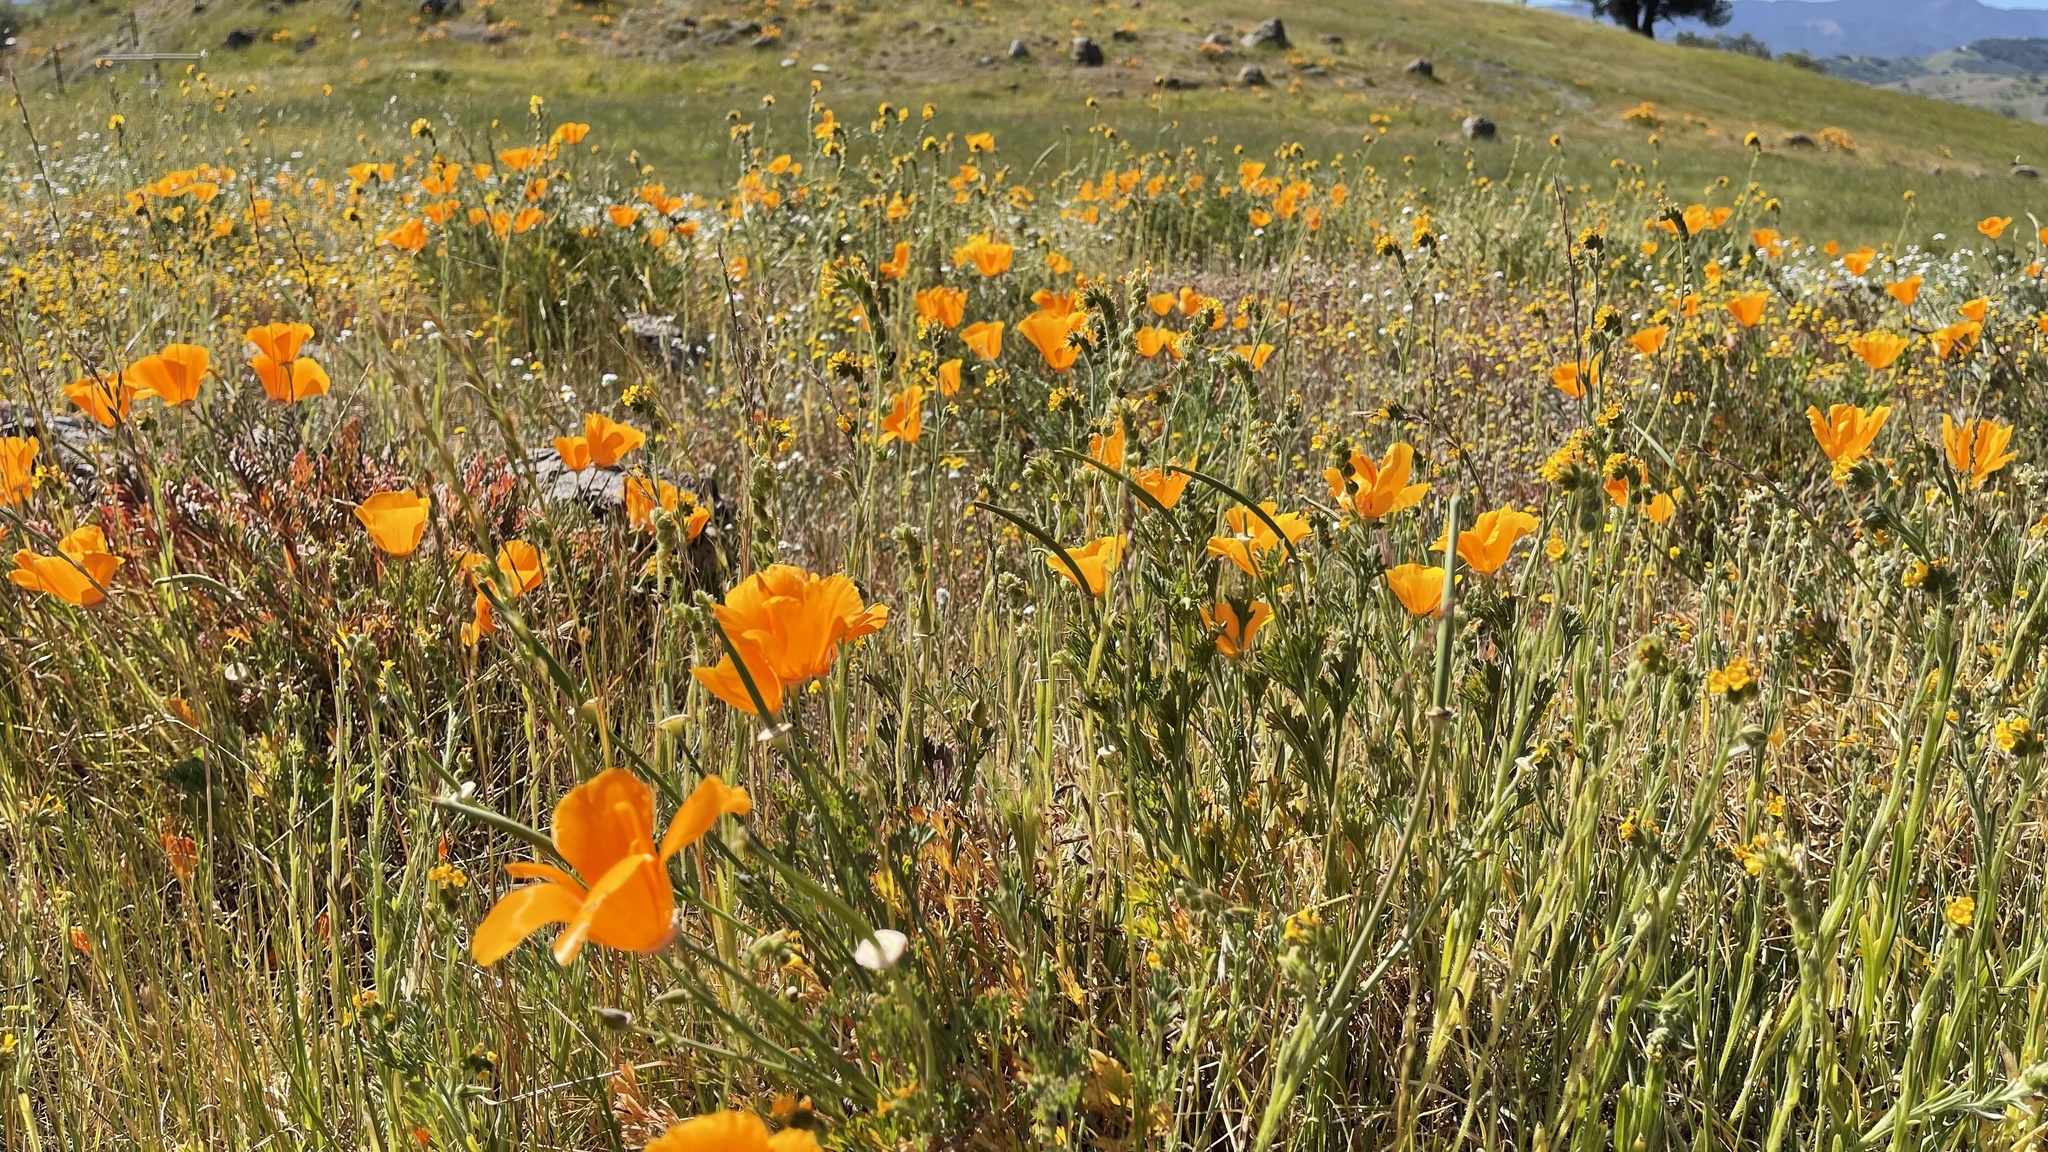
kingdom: Plantae
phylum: Tracheophyta
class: Magnoliopsida
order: Ranunculales
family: Papaveraceae
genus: Eschscholzia
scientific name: Eschscholzia californica
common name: California poppy
